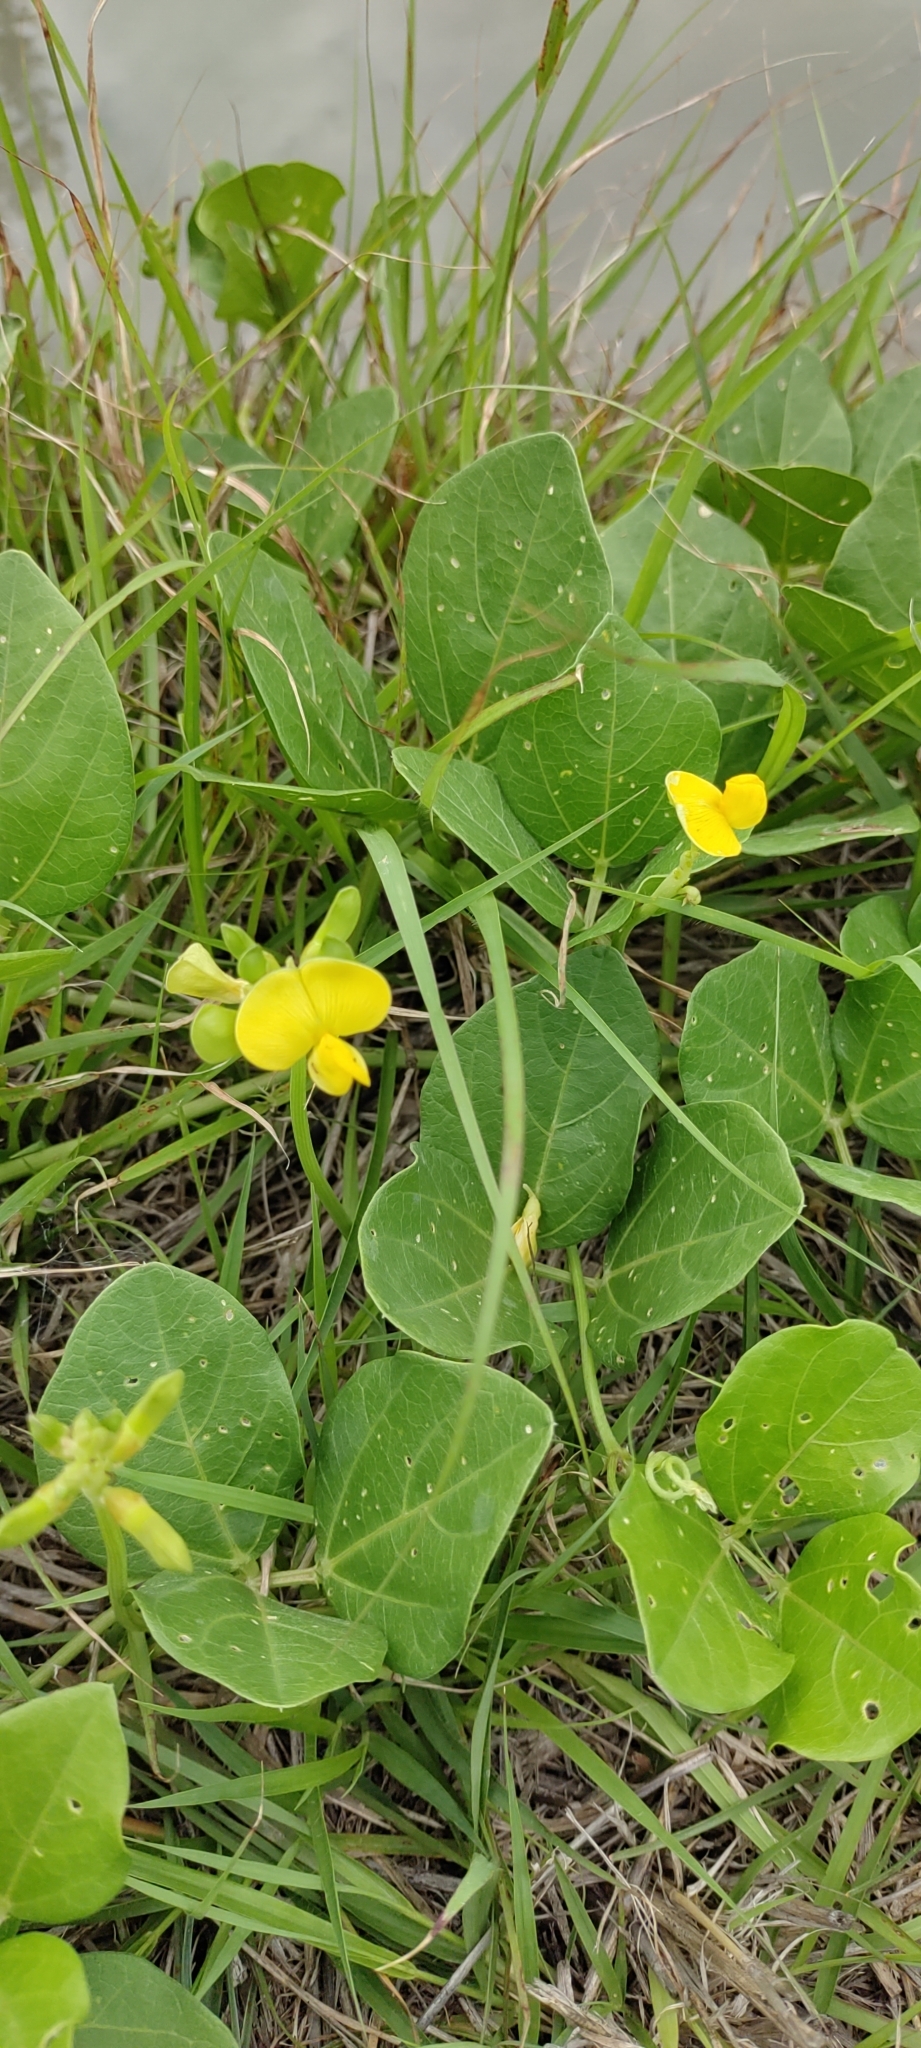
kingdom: Plantae
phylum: Tracheophyta
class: Magnoliopsida
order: Fabales
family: Fabaceae
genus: Vigna
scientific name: Vigna marina
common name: Dune-bean
